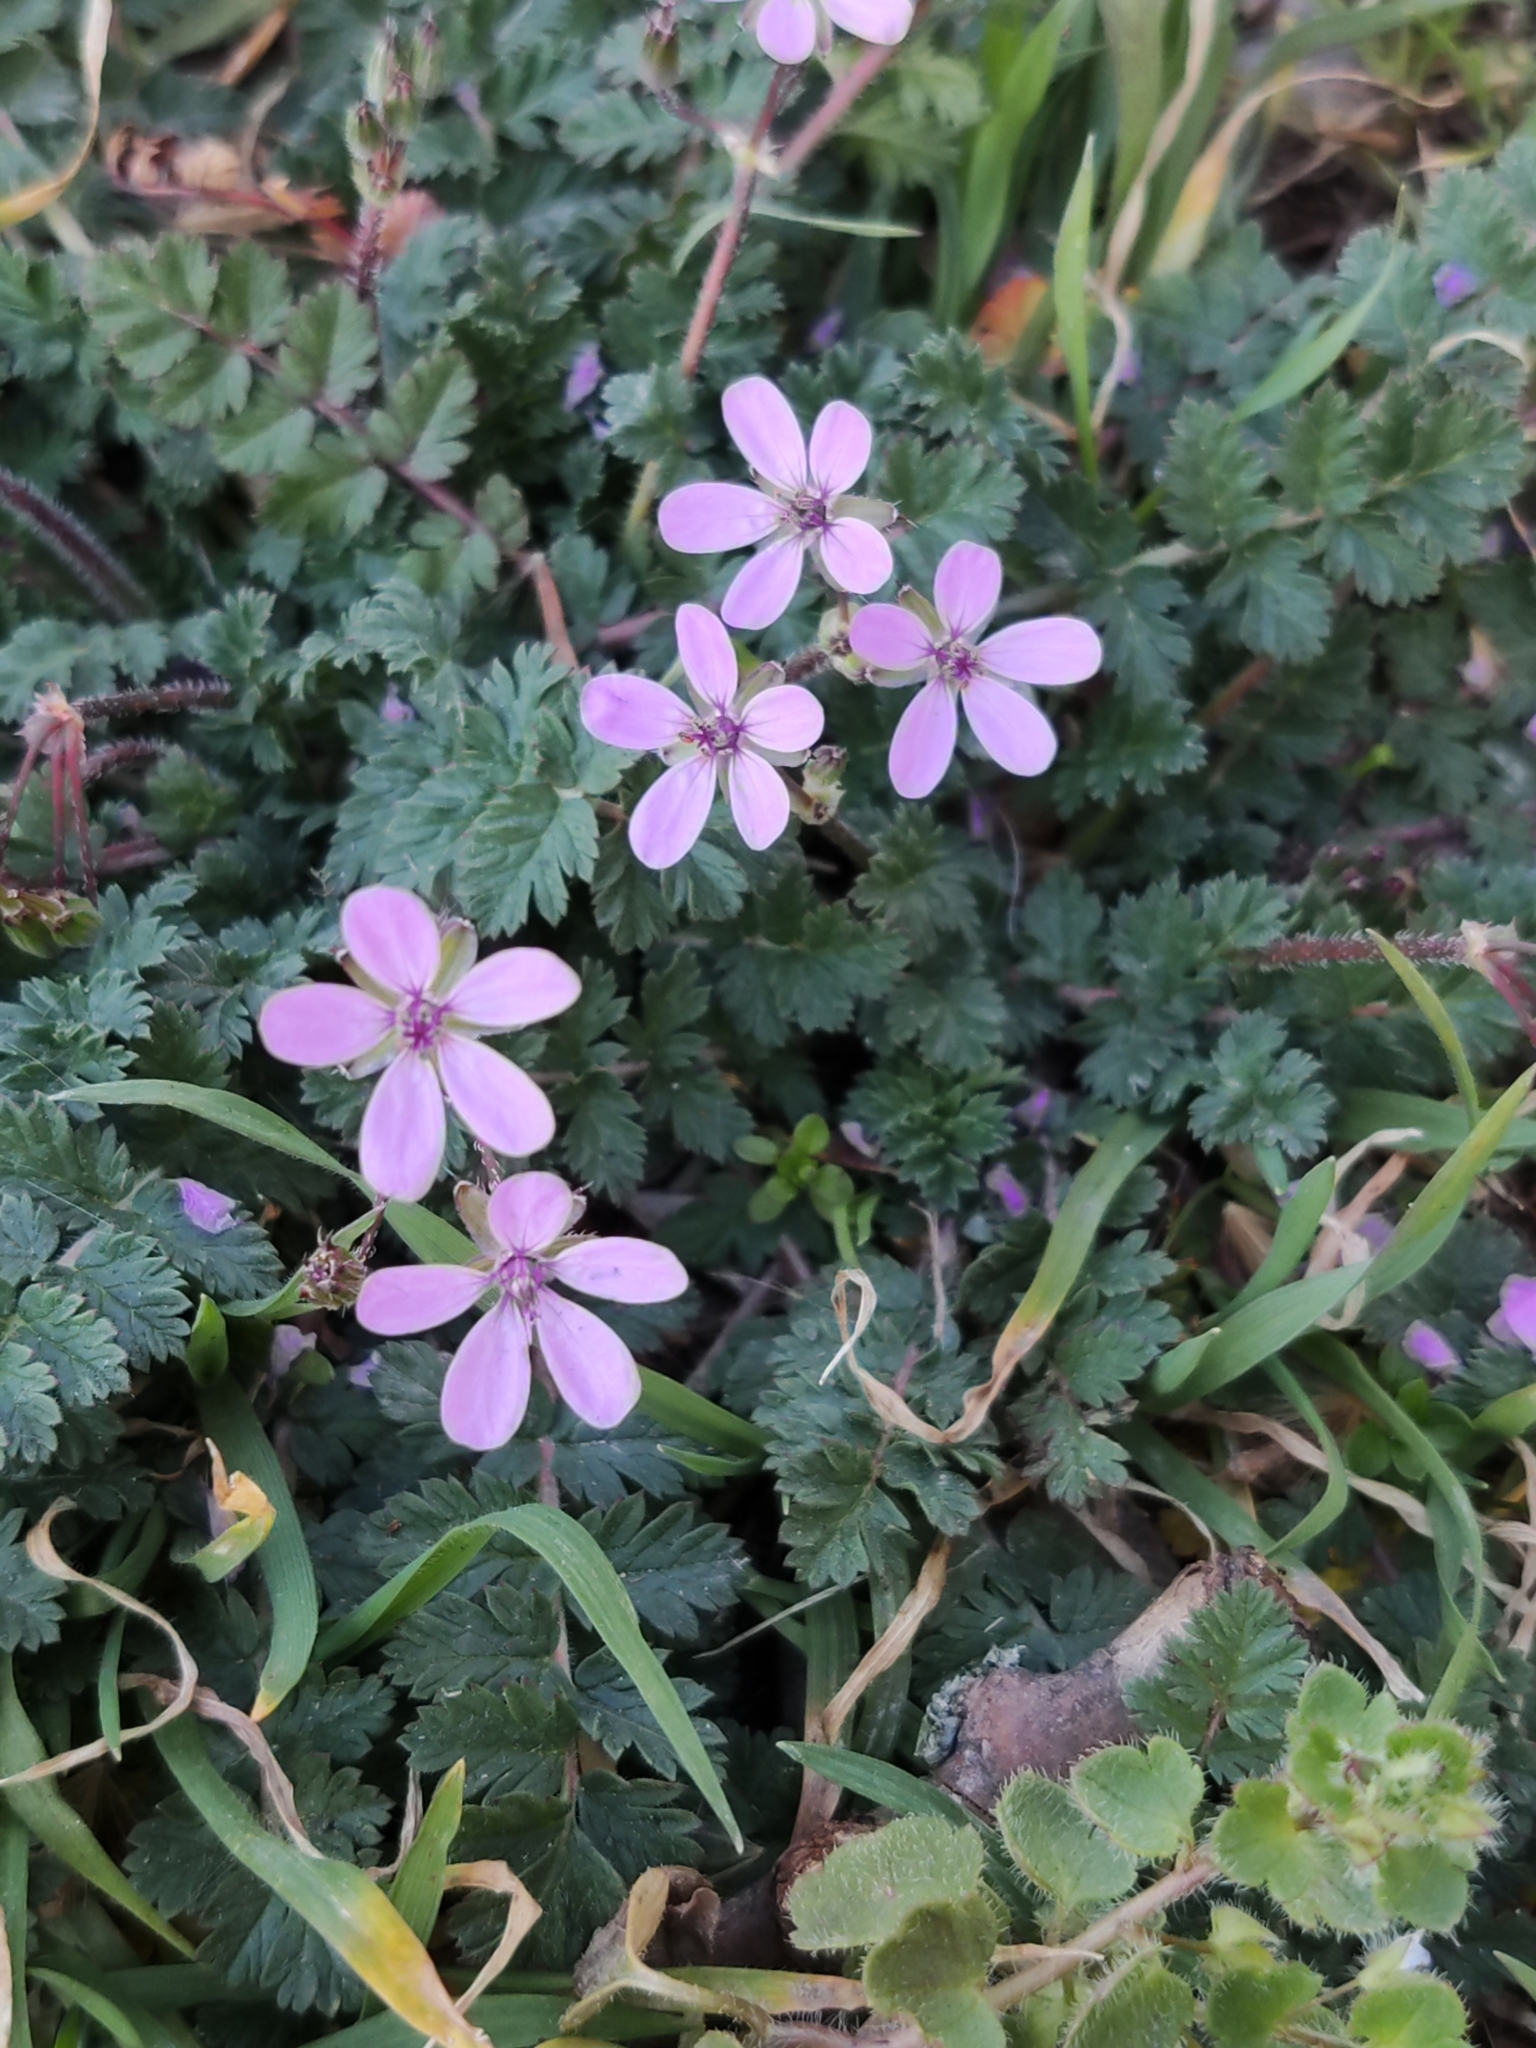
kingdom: Plantae
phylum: Tracheophyta
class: Magnoliopsida
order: Geraniales
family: Geraniaceae
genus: Erodium
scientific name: Erodium cicutarium
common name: Common stork's-bill
